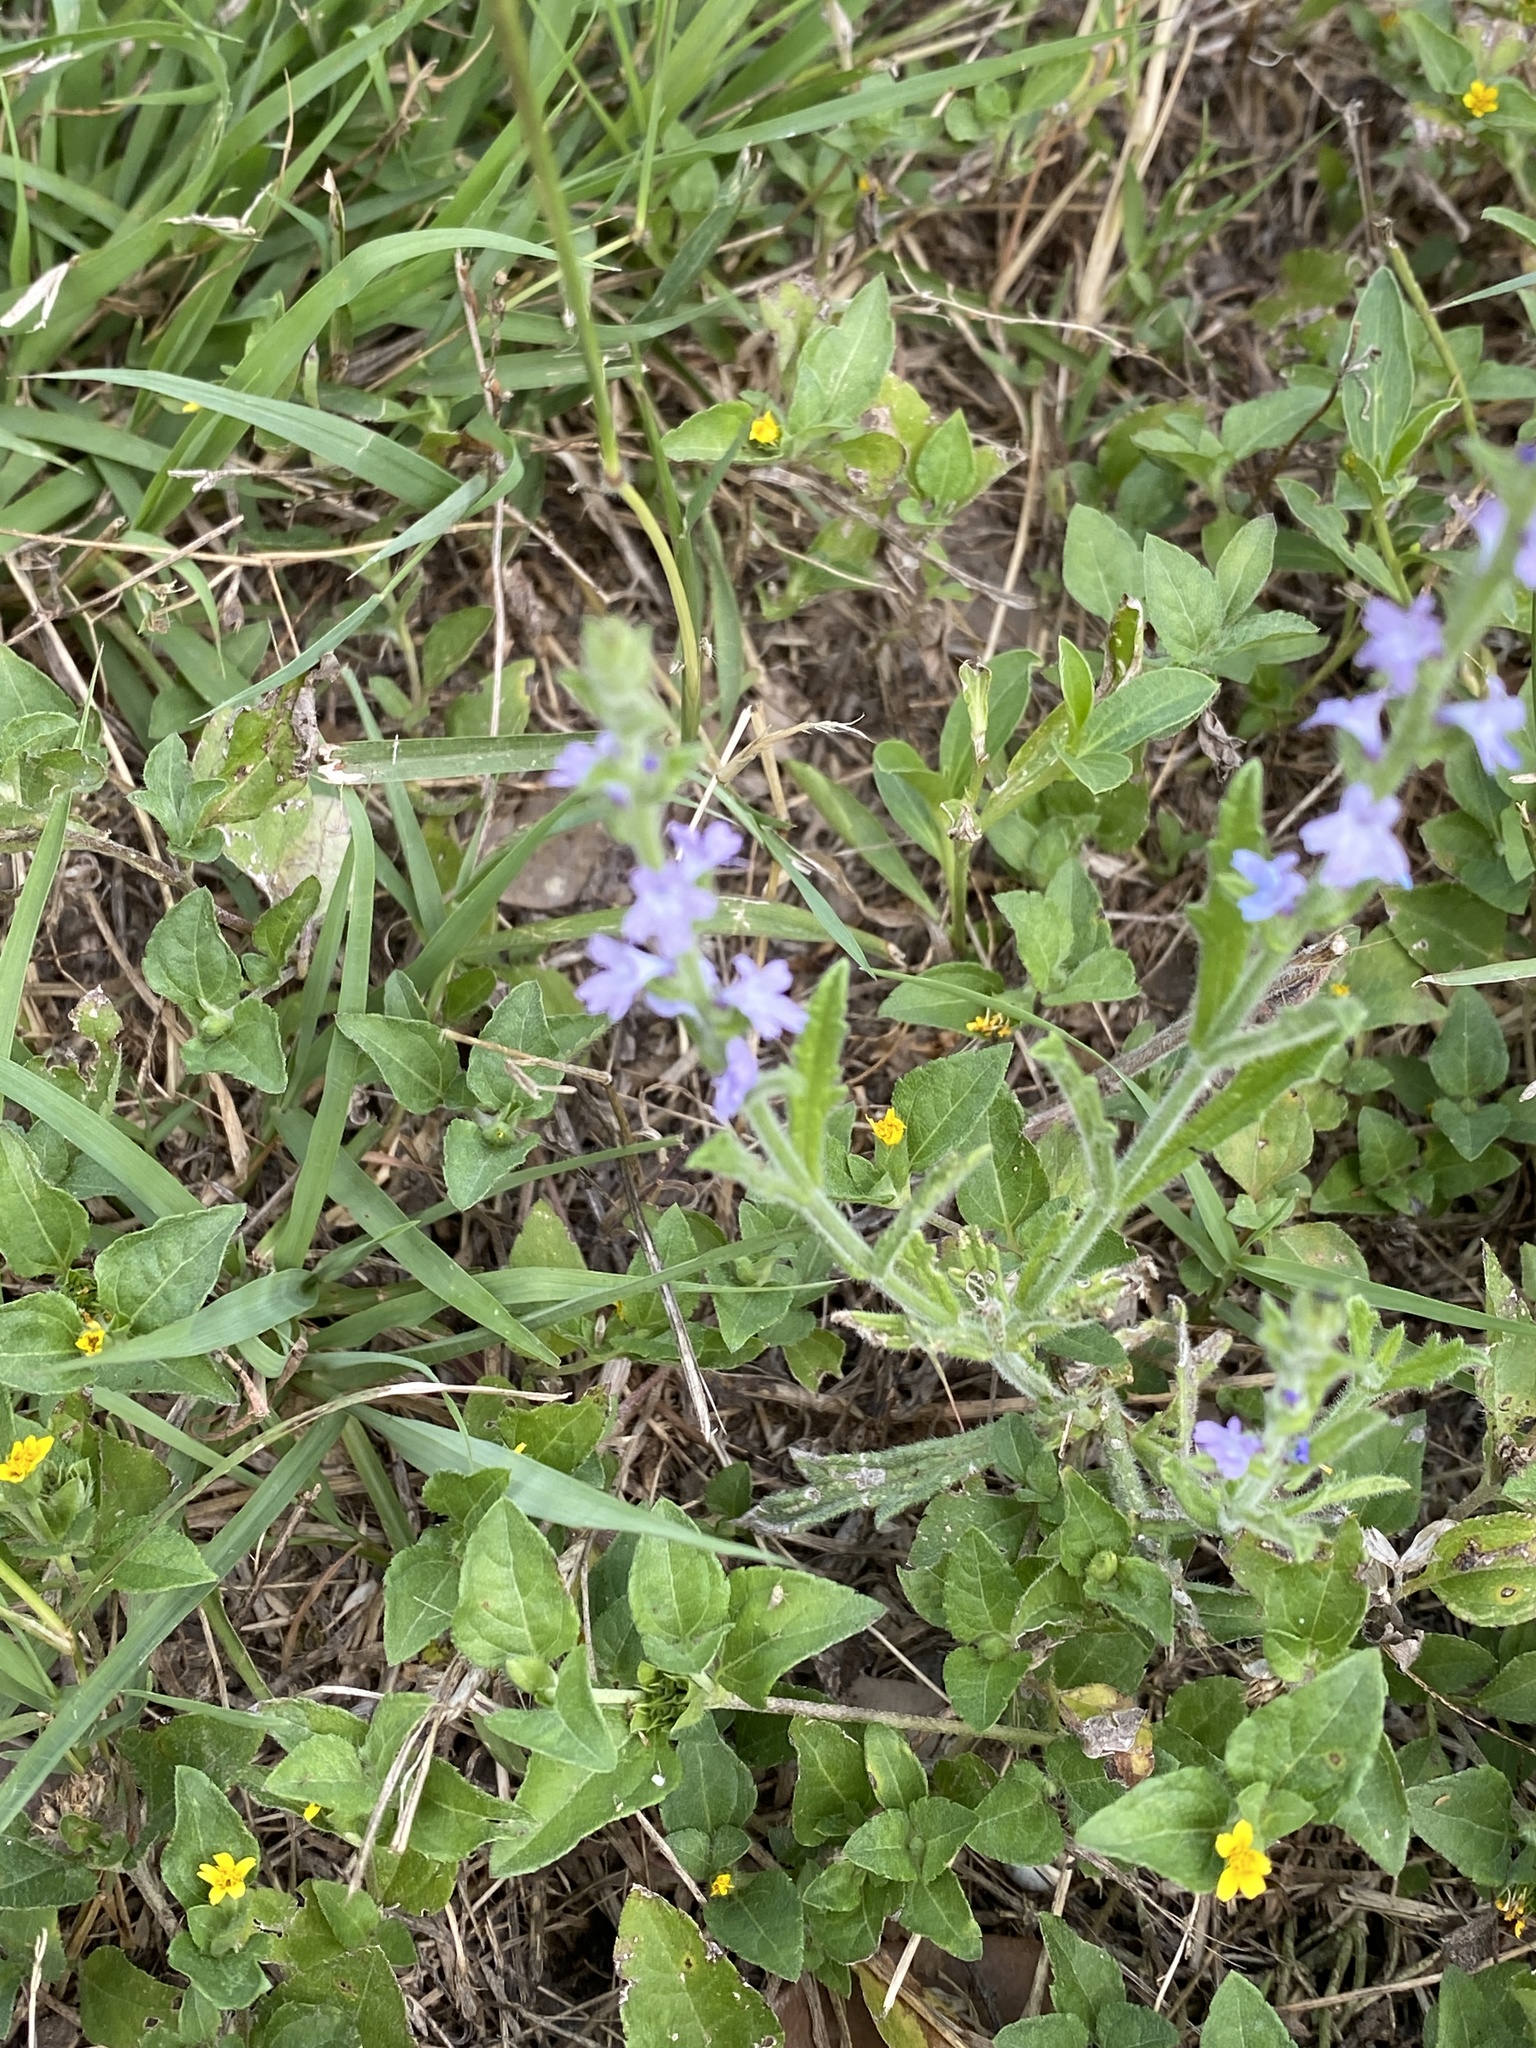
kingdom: Plantae
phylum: Tracheophyta
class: Magnoliopsida
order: Lamiales
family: Verbenaceae
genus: Verbena
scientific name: Verbena canescens
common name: Gray vervain
